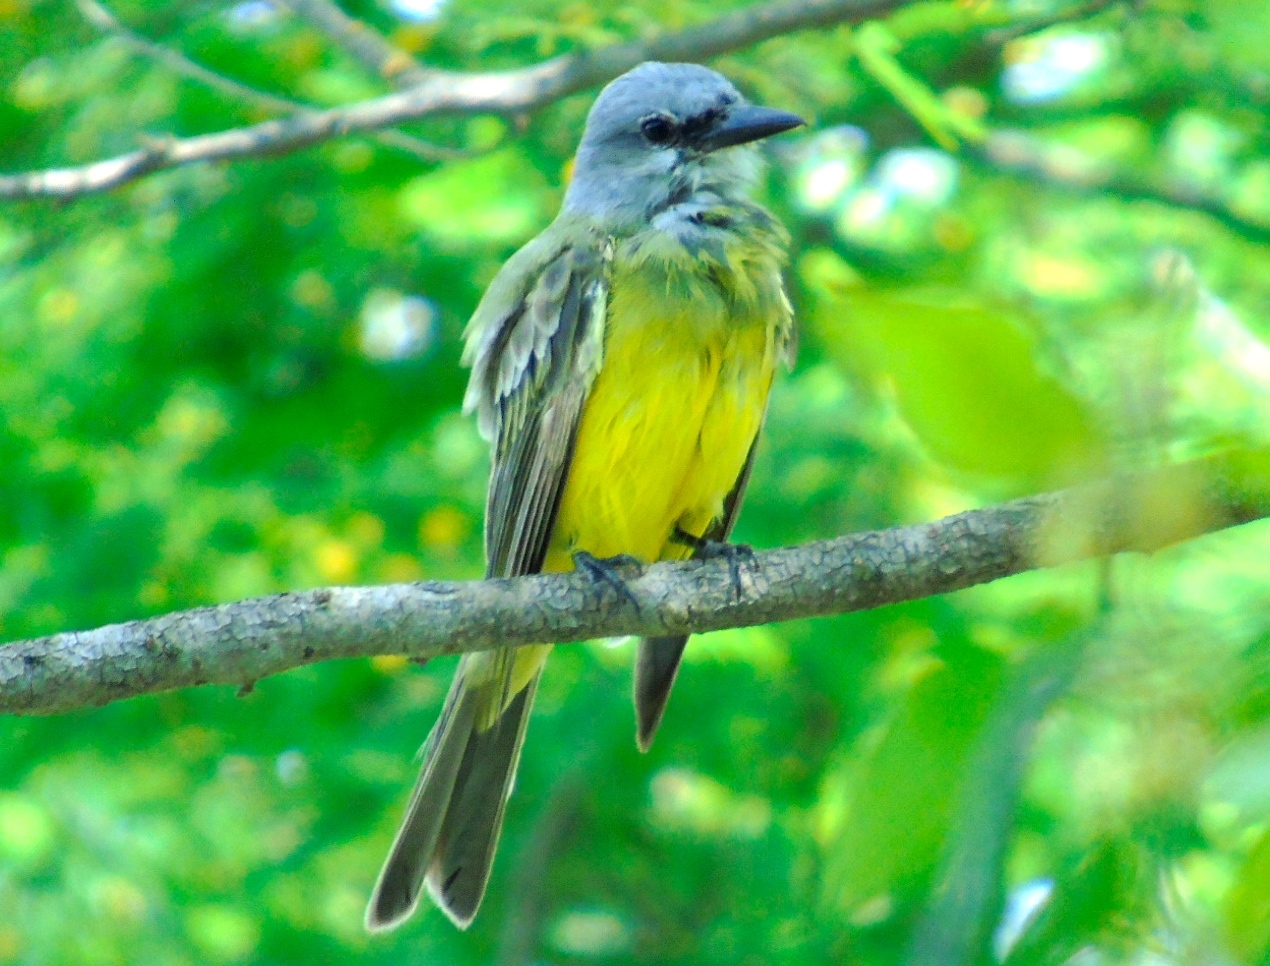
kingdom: Animalia
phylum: Chordata
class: Aves
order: Passeriformes
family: Tyrannidae
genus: Tyrannus
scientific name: Tyrannus melancholicus
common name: Tropical kingbird
